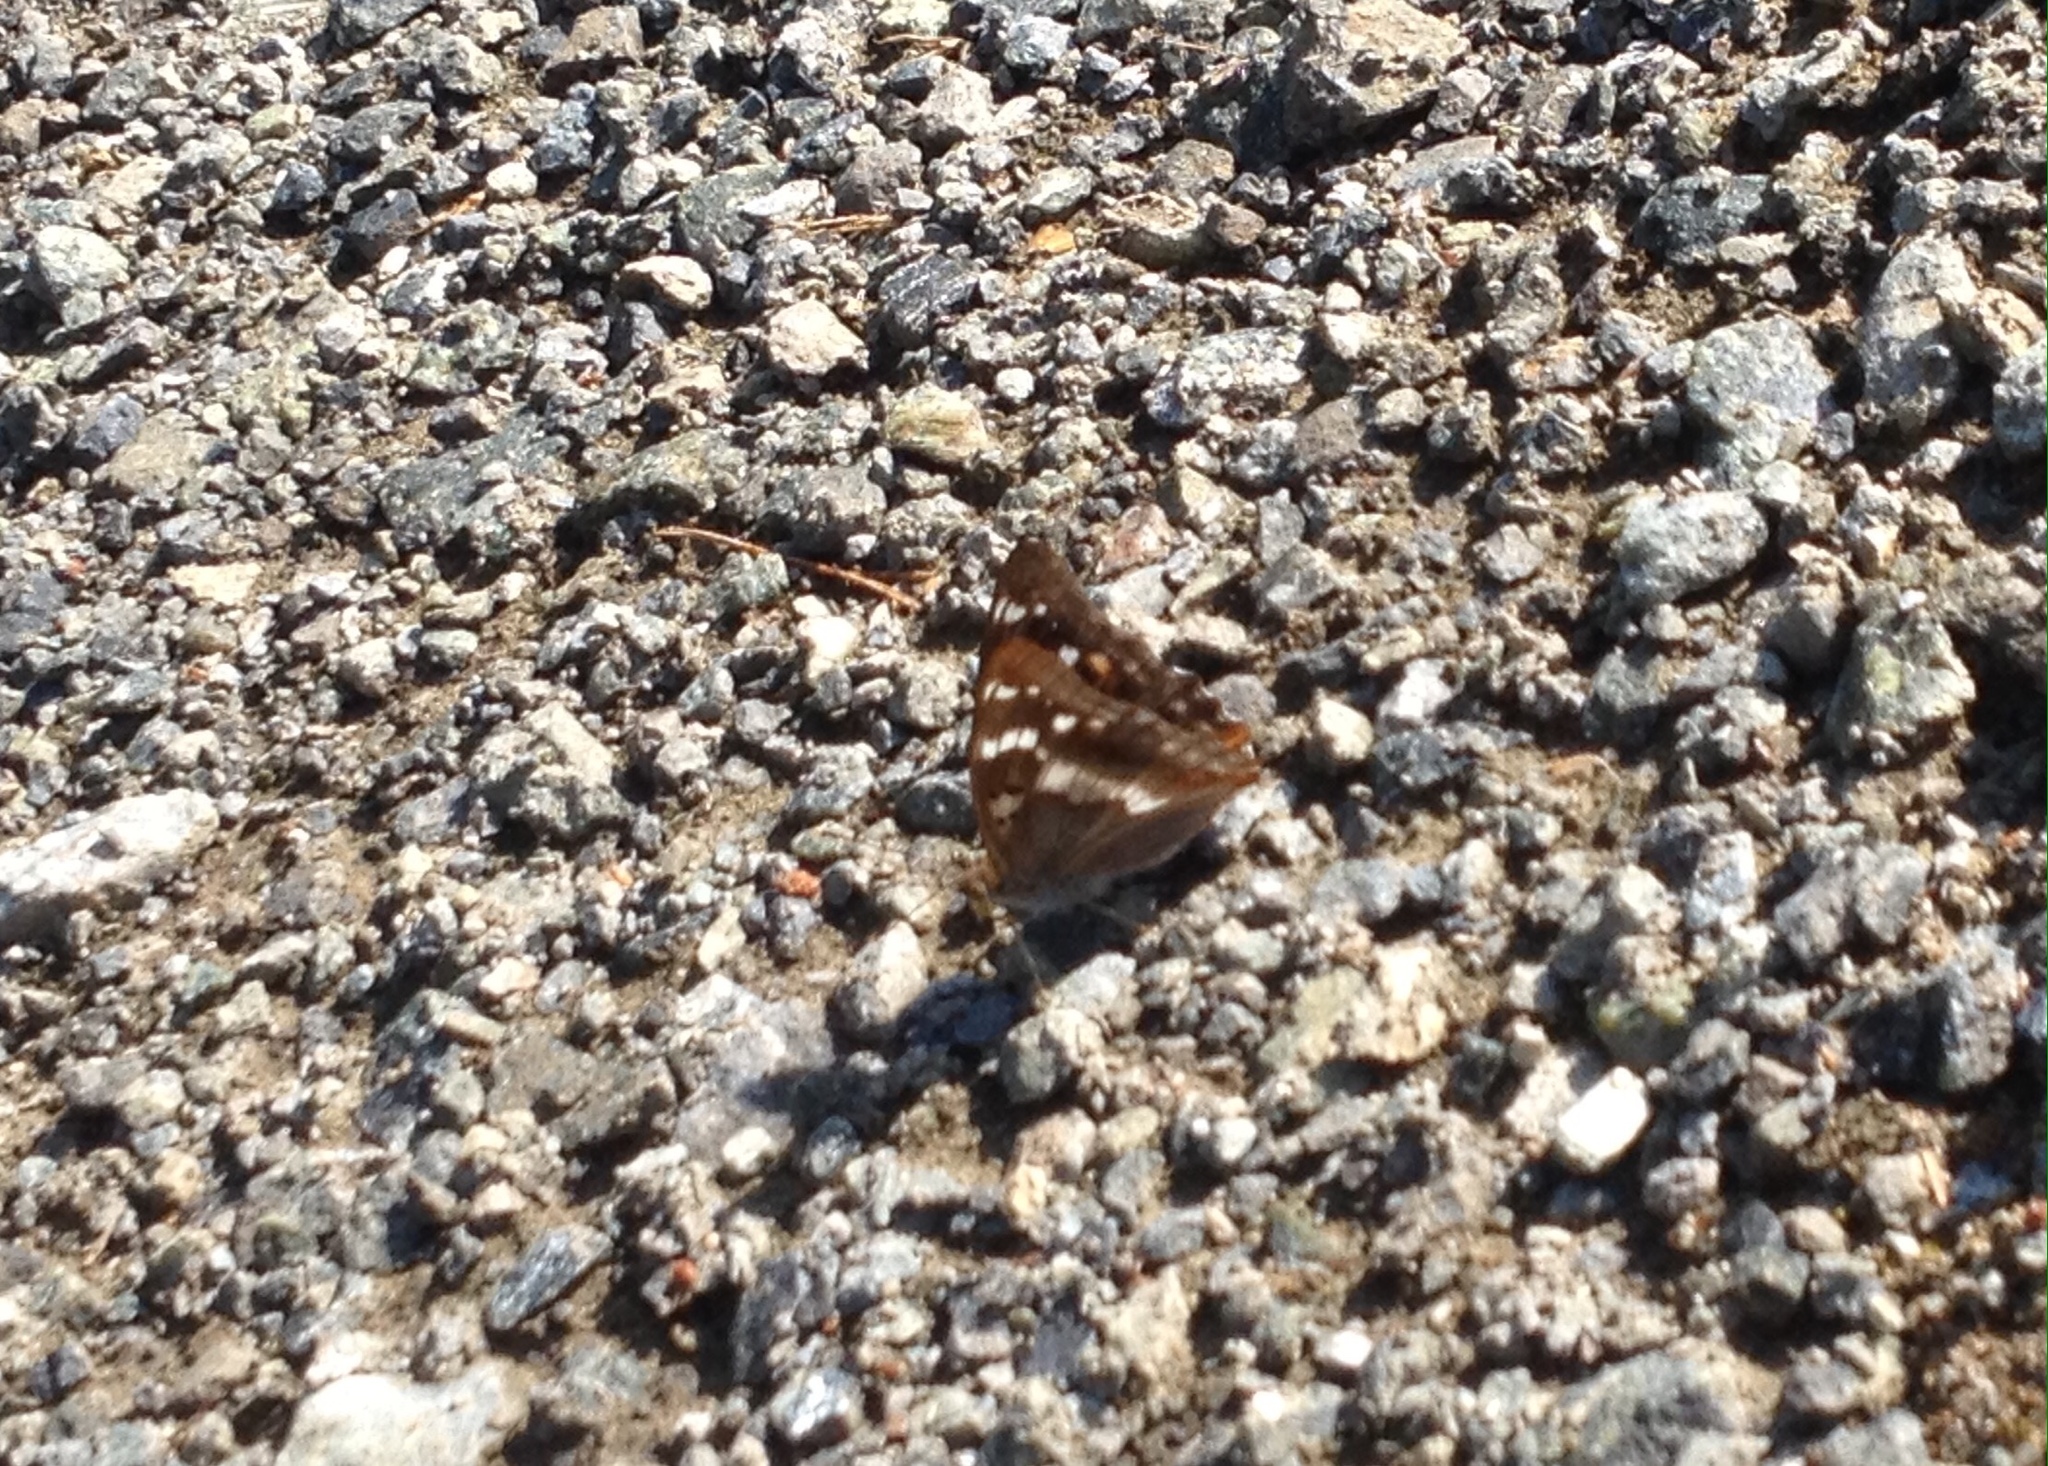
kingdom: Animalia
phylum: Arthropoda
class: Insecta
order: Lepidoptera
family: Nymphalidae
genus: Apatura
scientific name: Apatura ilia
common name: Lesser purple emperor
